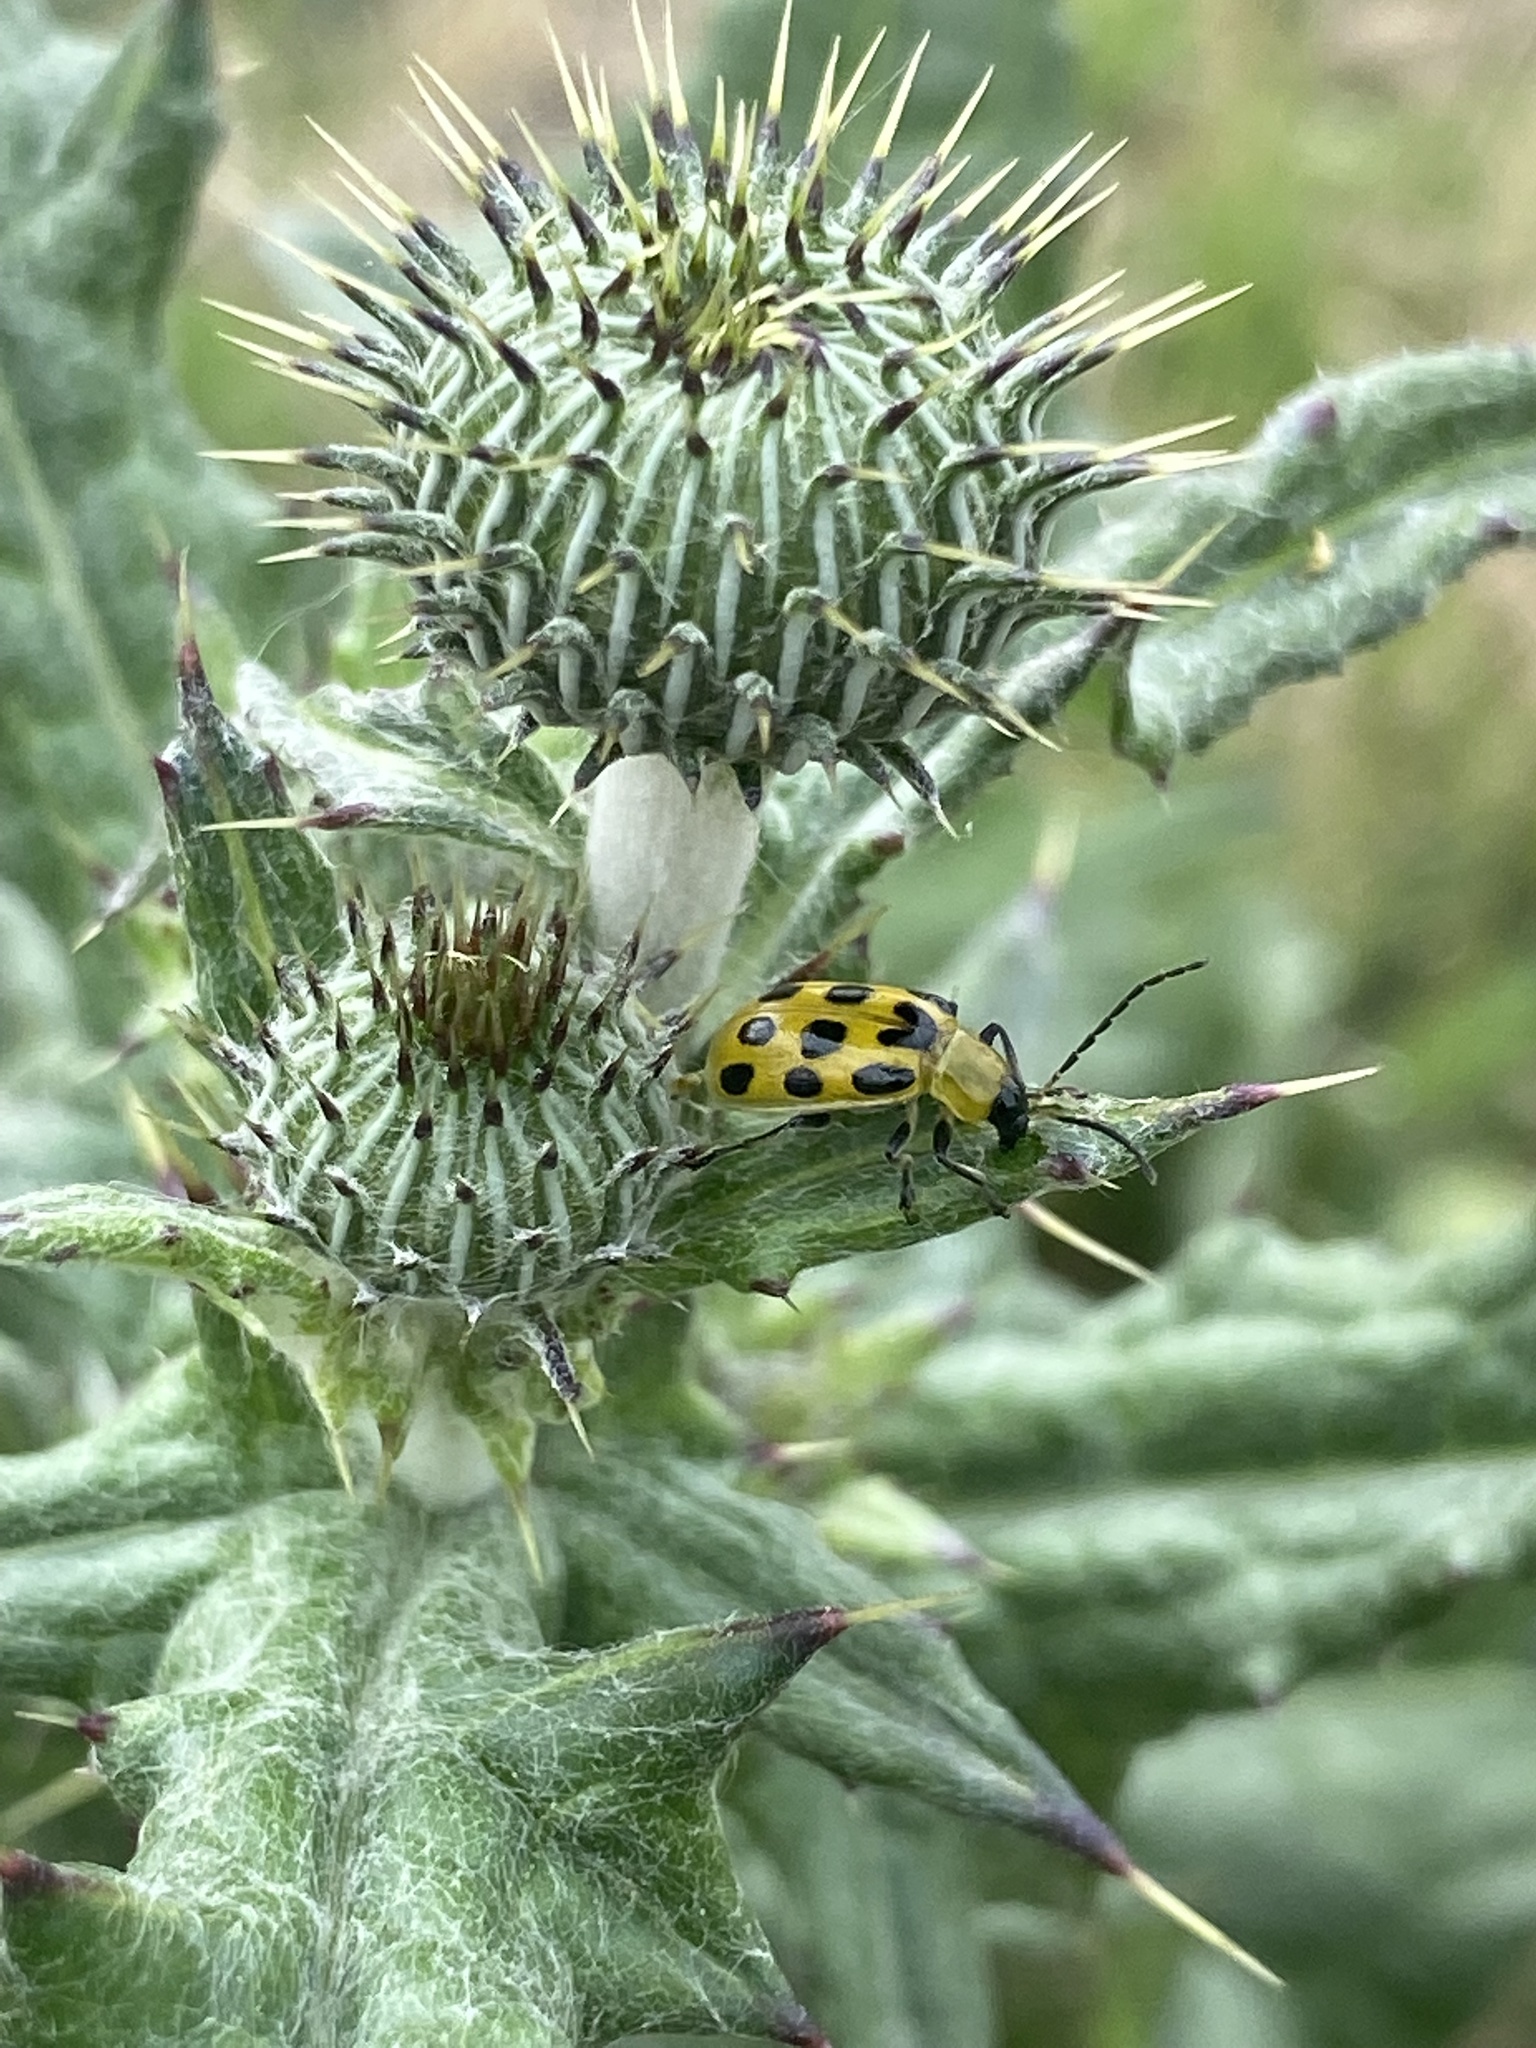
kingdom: Animalia
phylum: Arthropoda
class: Insecta
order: Coleoptera
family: Chrysomelidae
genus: Diabrotica
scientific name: Diabrotica undecimpunctata
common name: Spotted cucumber beetle
